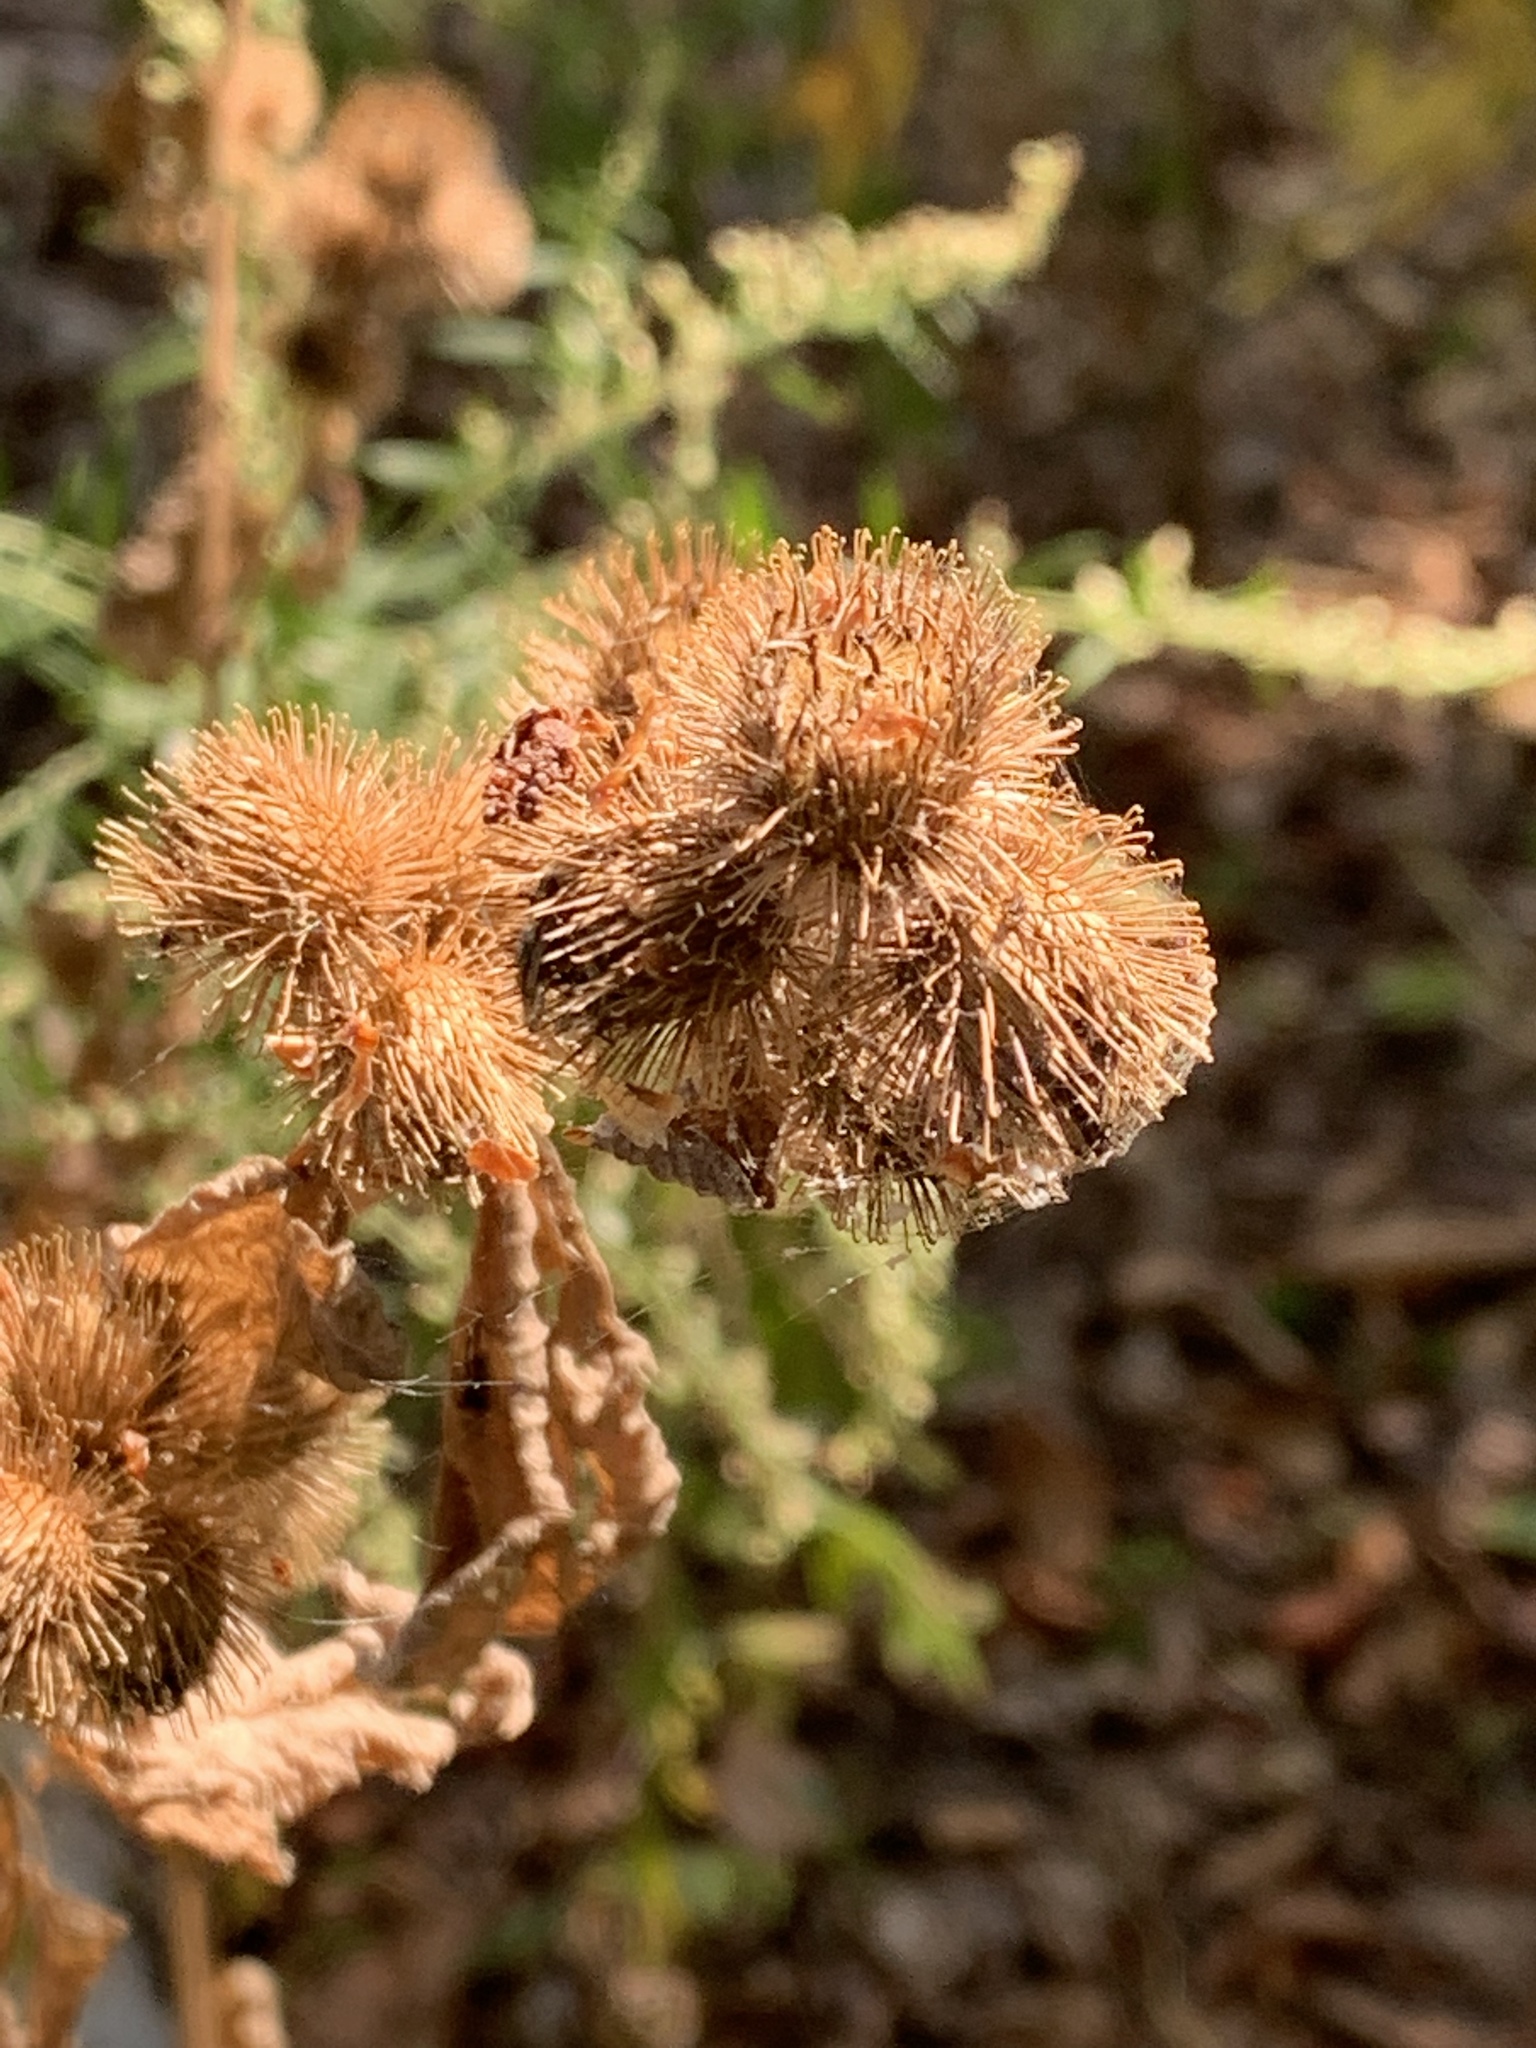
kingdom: Plantae
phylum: Tracheophyta
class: Magnoliopsida
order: Asterales
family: Asteraceae
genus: Arctium
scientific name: Arctium minus
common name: Lesser burdock
